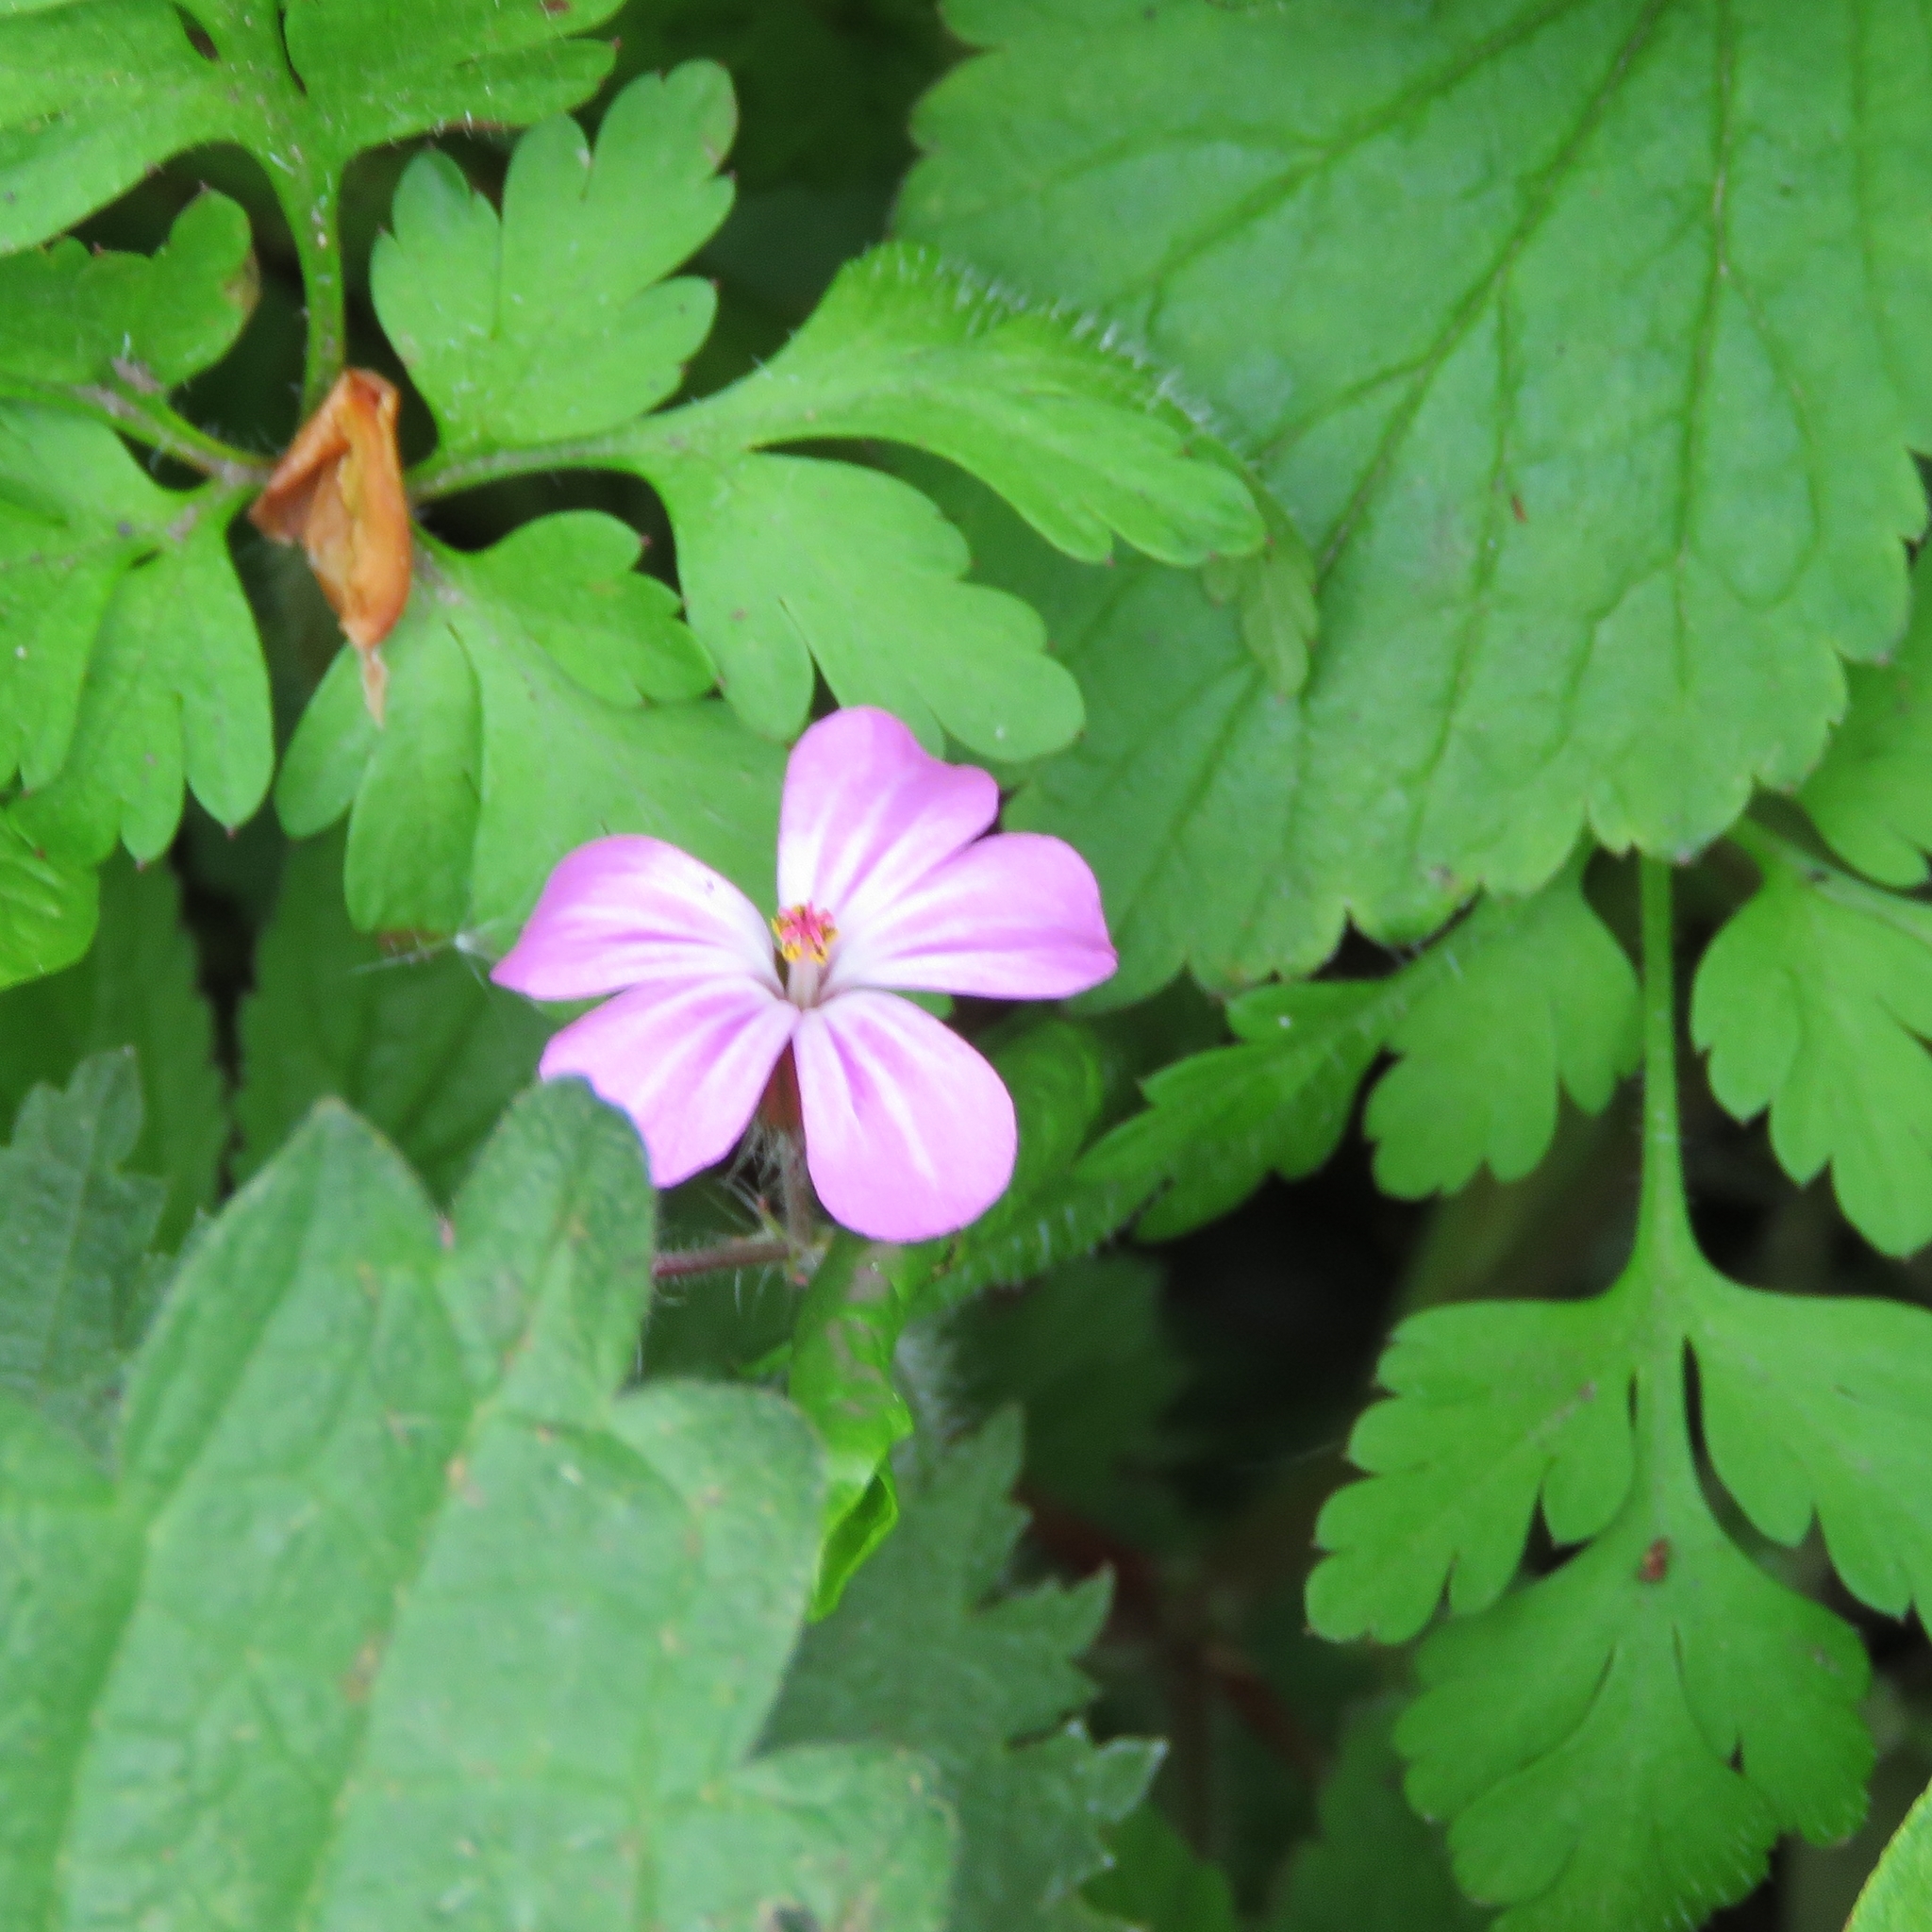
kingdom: Plantae
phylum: Tracheophyta
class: Magnoliopsida
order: Geraniales
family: Geraniaceae
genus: Geranium
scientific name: Geranium robertianum
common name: Herb-robert
